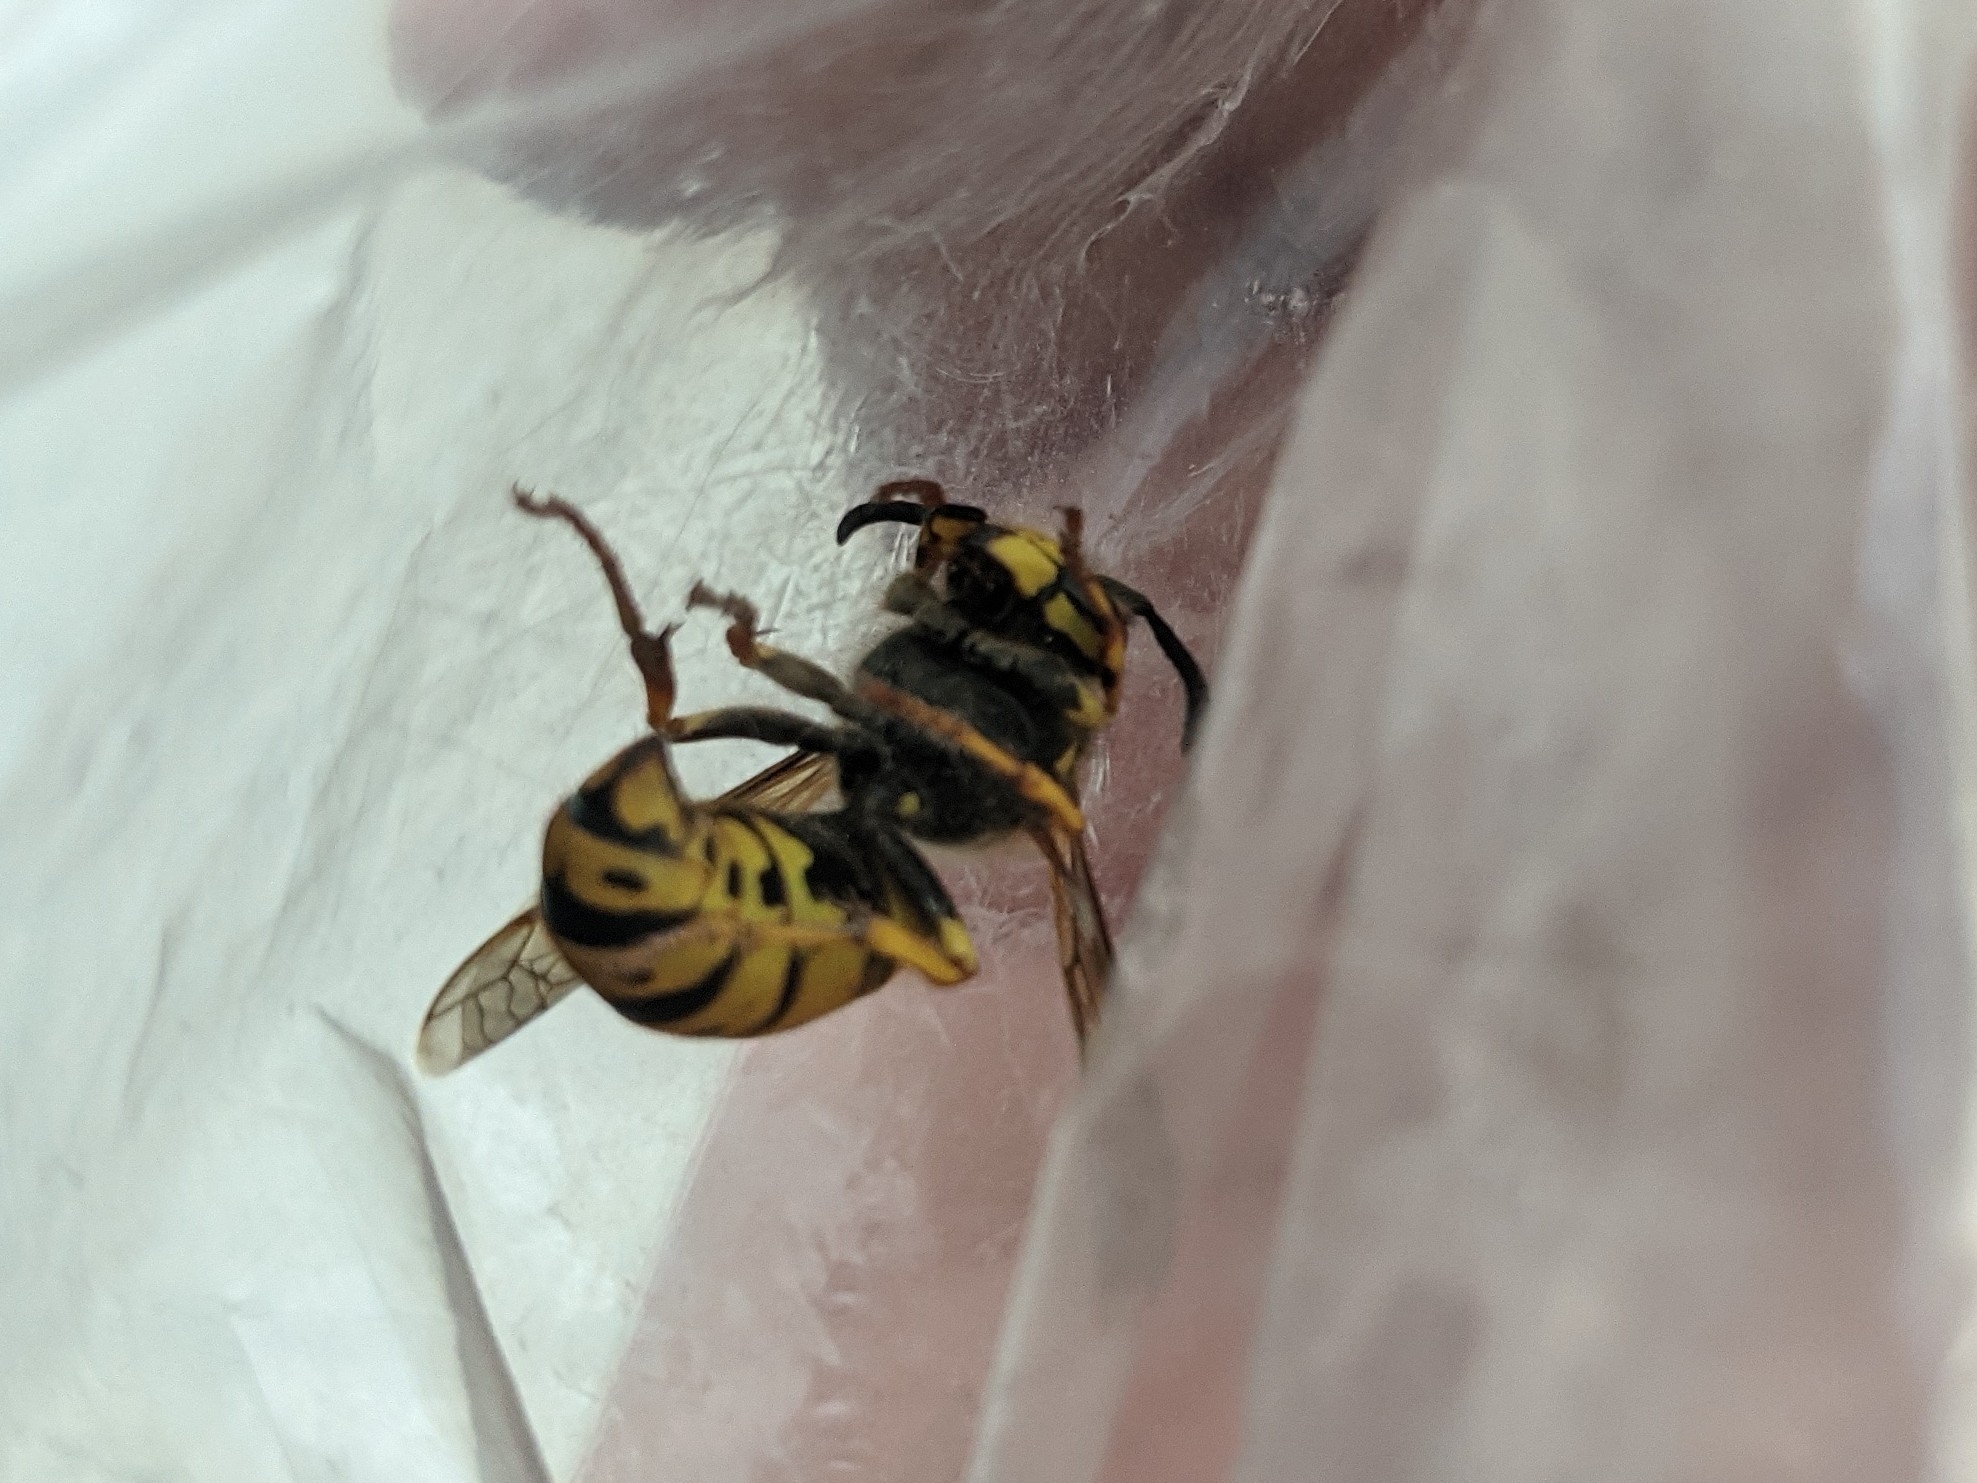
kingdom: Animalia
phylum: Arthropoda
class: Insecta
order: Hymenoptera
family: Vespidae
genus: Vespula
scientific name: Vespula
